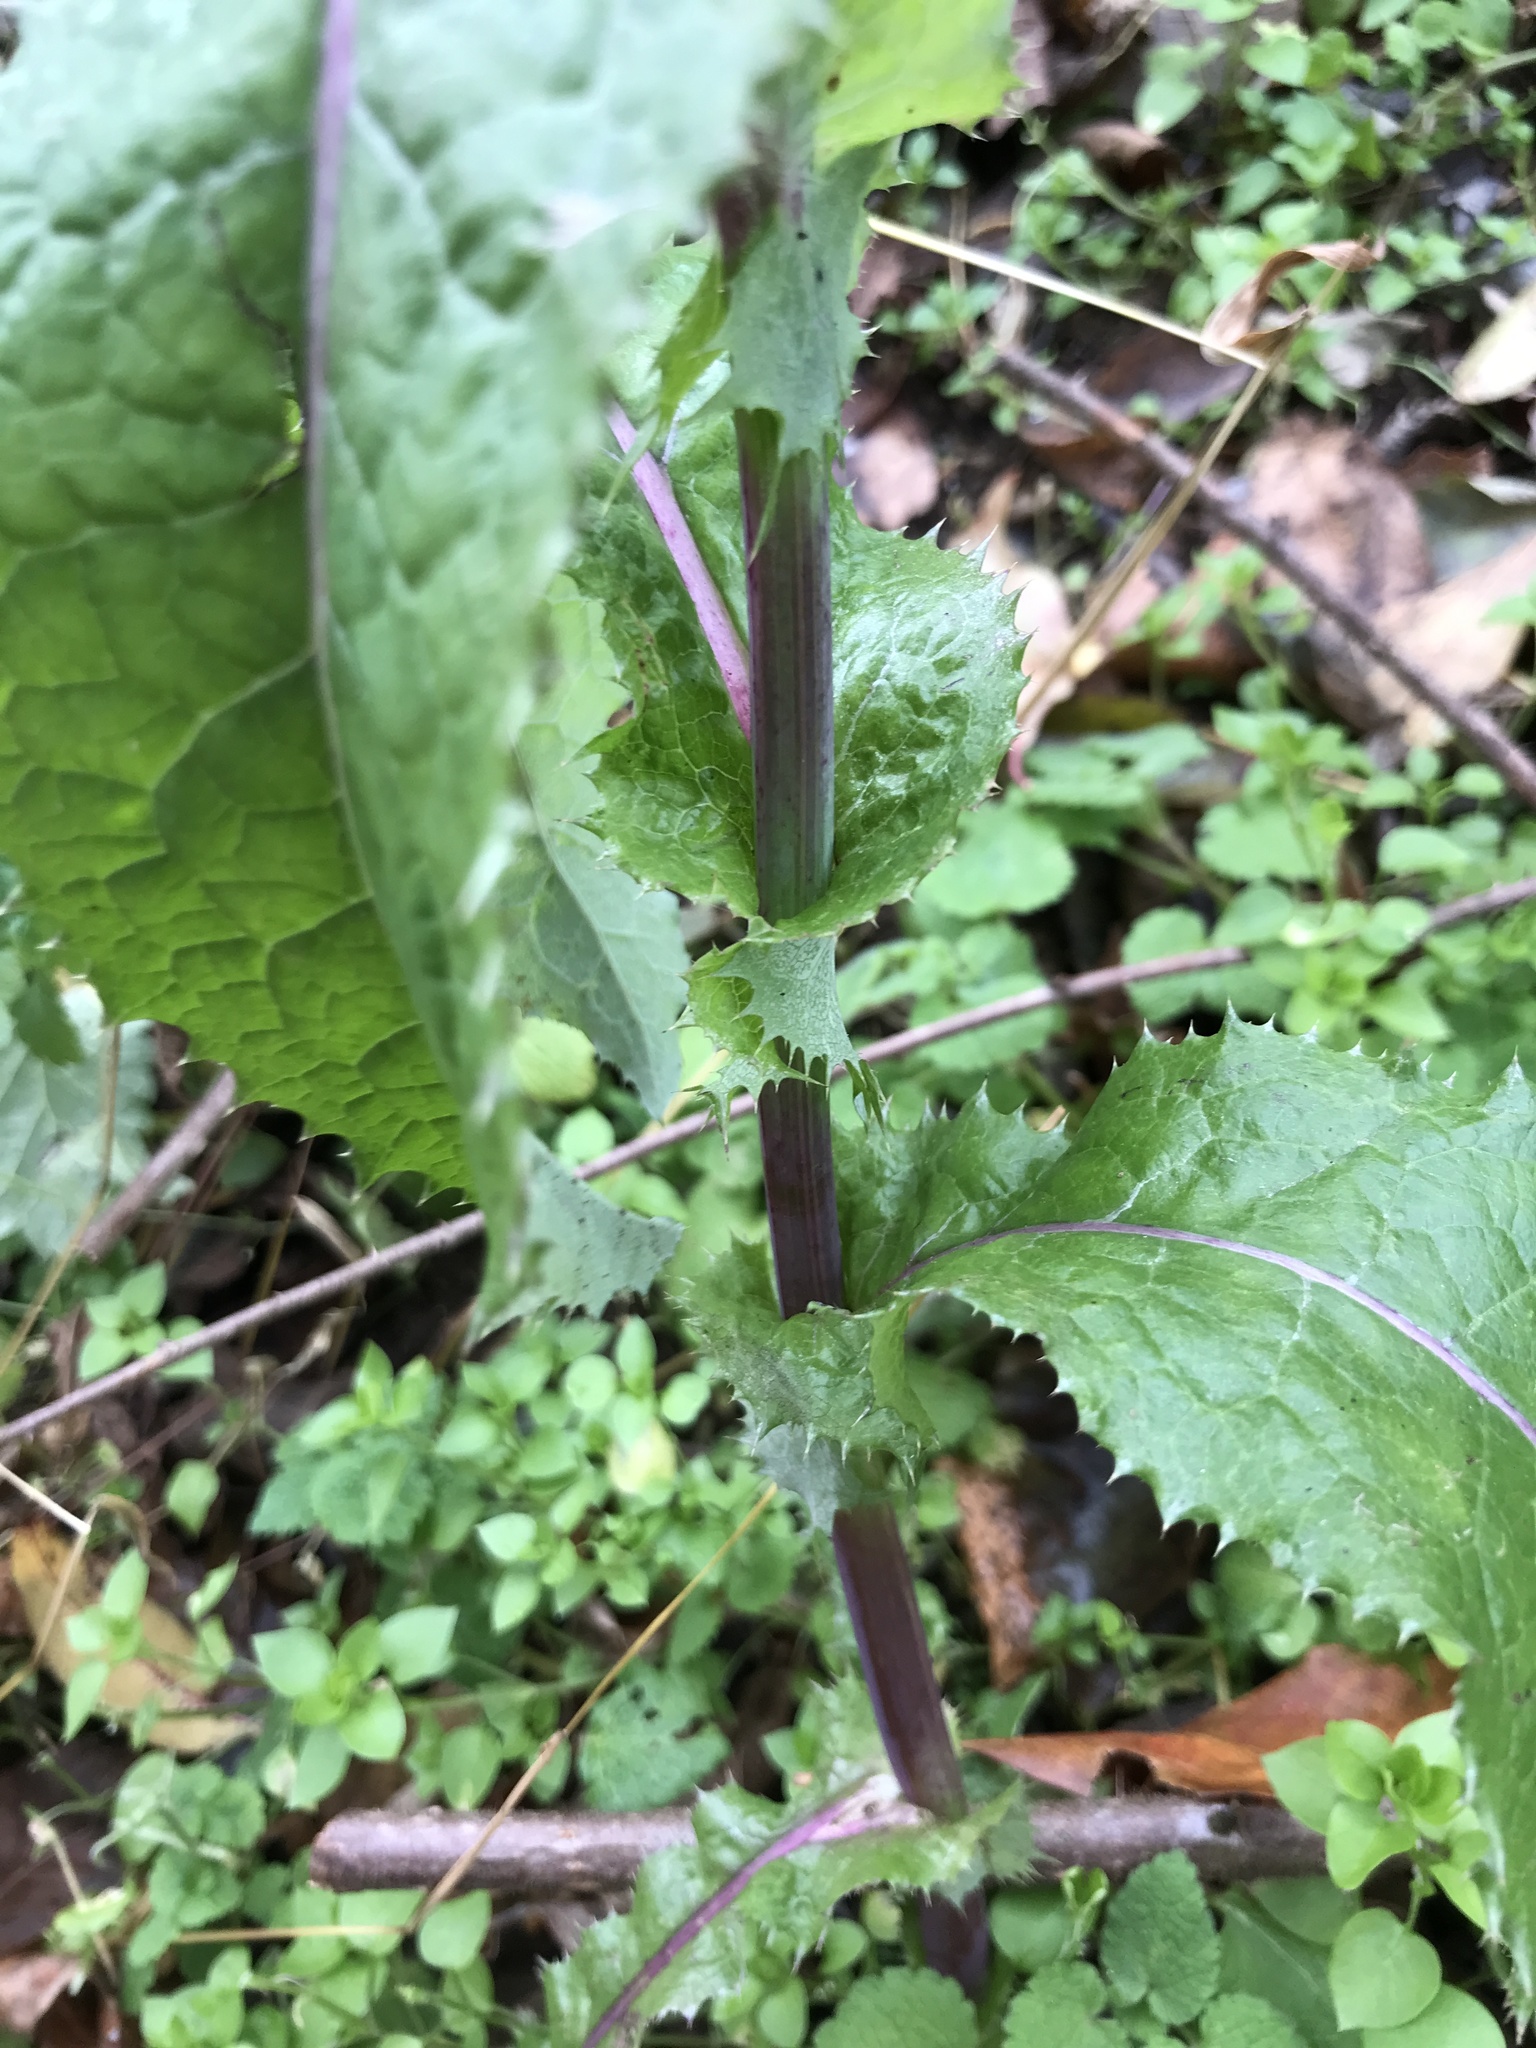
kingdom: Plantae
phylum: Tracheophyta
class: Magnoliopsida
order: Asterales
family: Asteraceae
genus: Sonchus
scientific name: Sonchus asper
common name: Prickly sow-thistle
